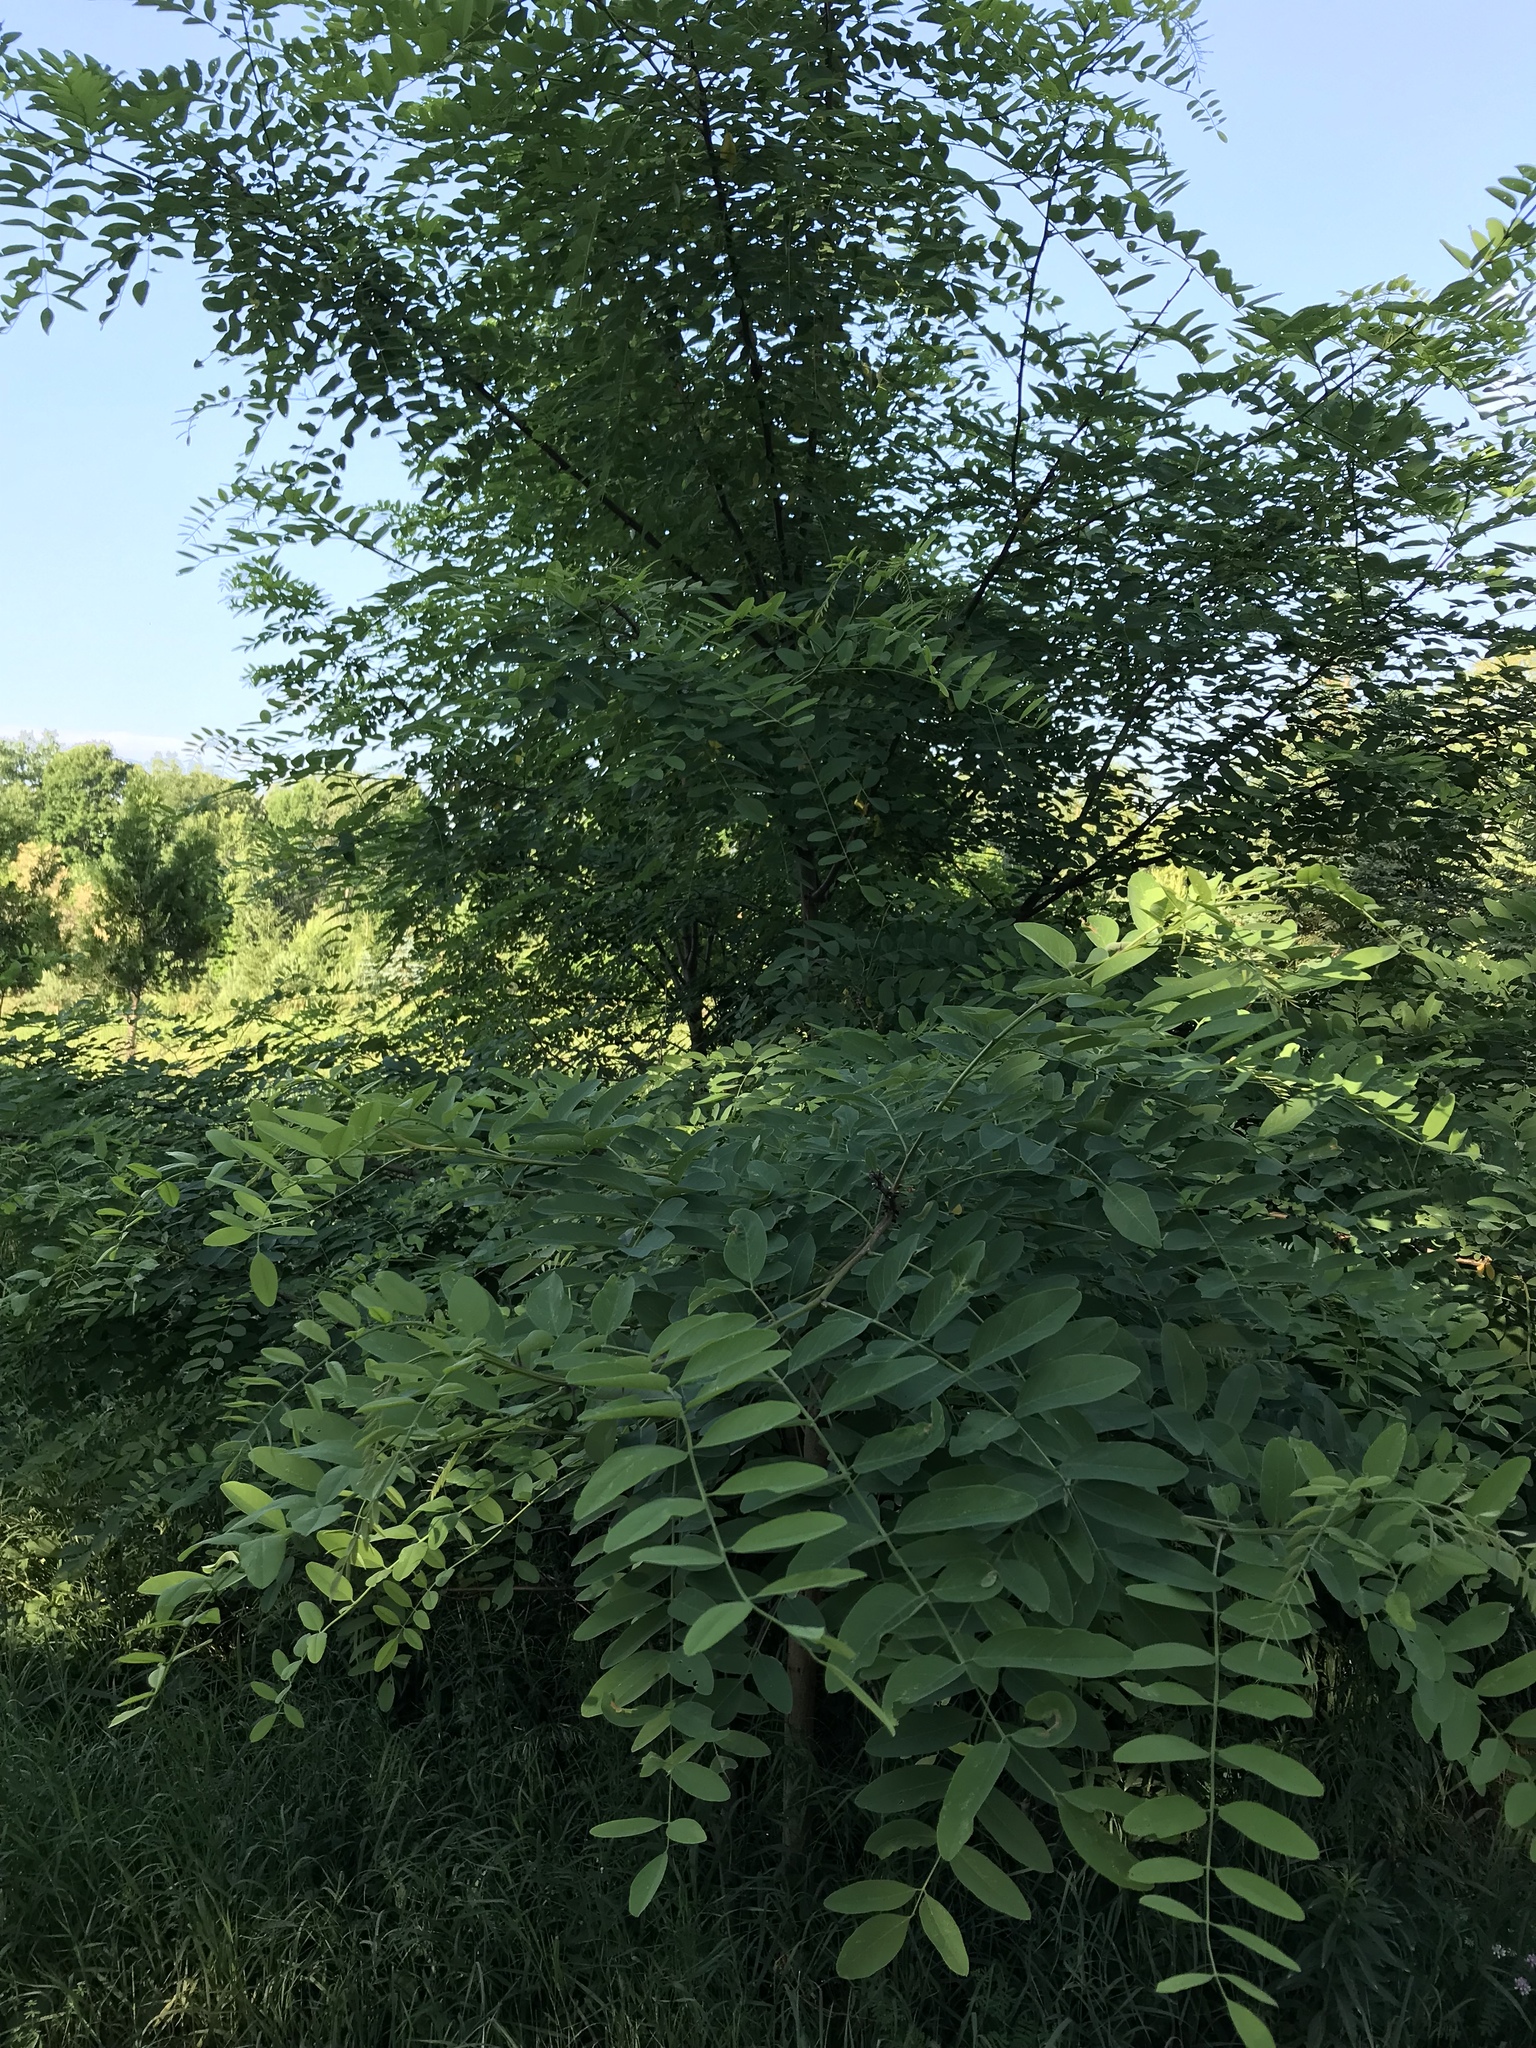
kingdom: Plantae
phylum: Tracheophyta
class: Magnoliopsida
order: Fabales
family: Fabaceae
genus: Robinia
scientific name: Robinia pseudoacacia
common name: Black locust
